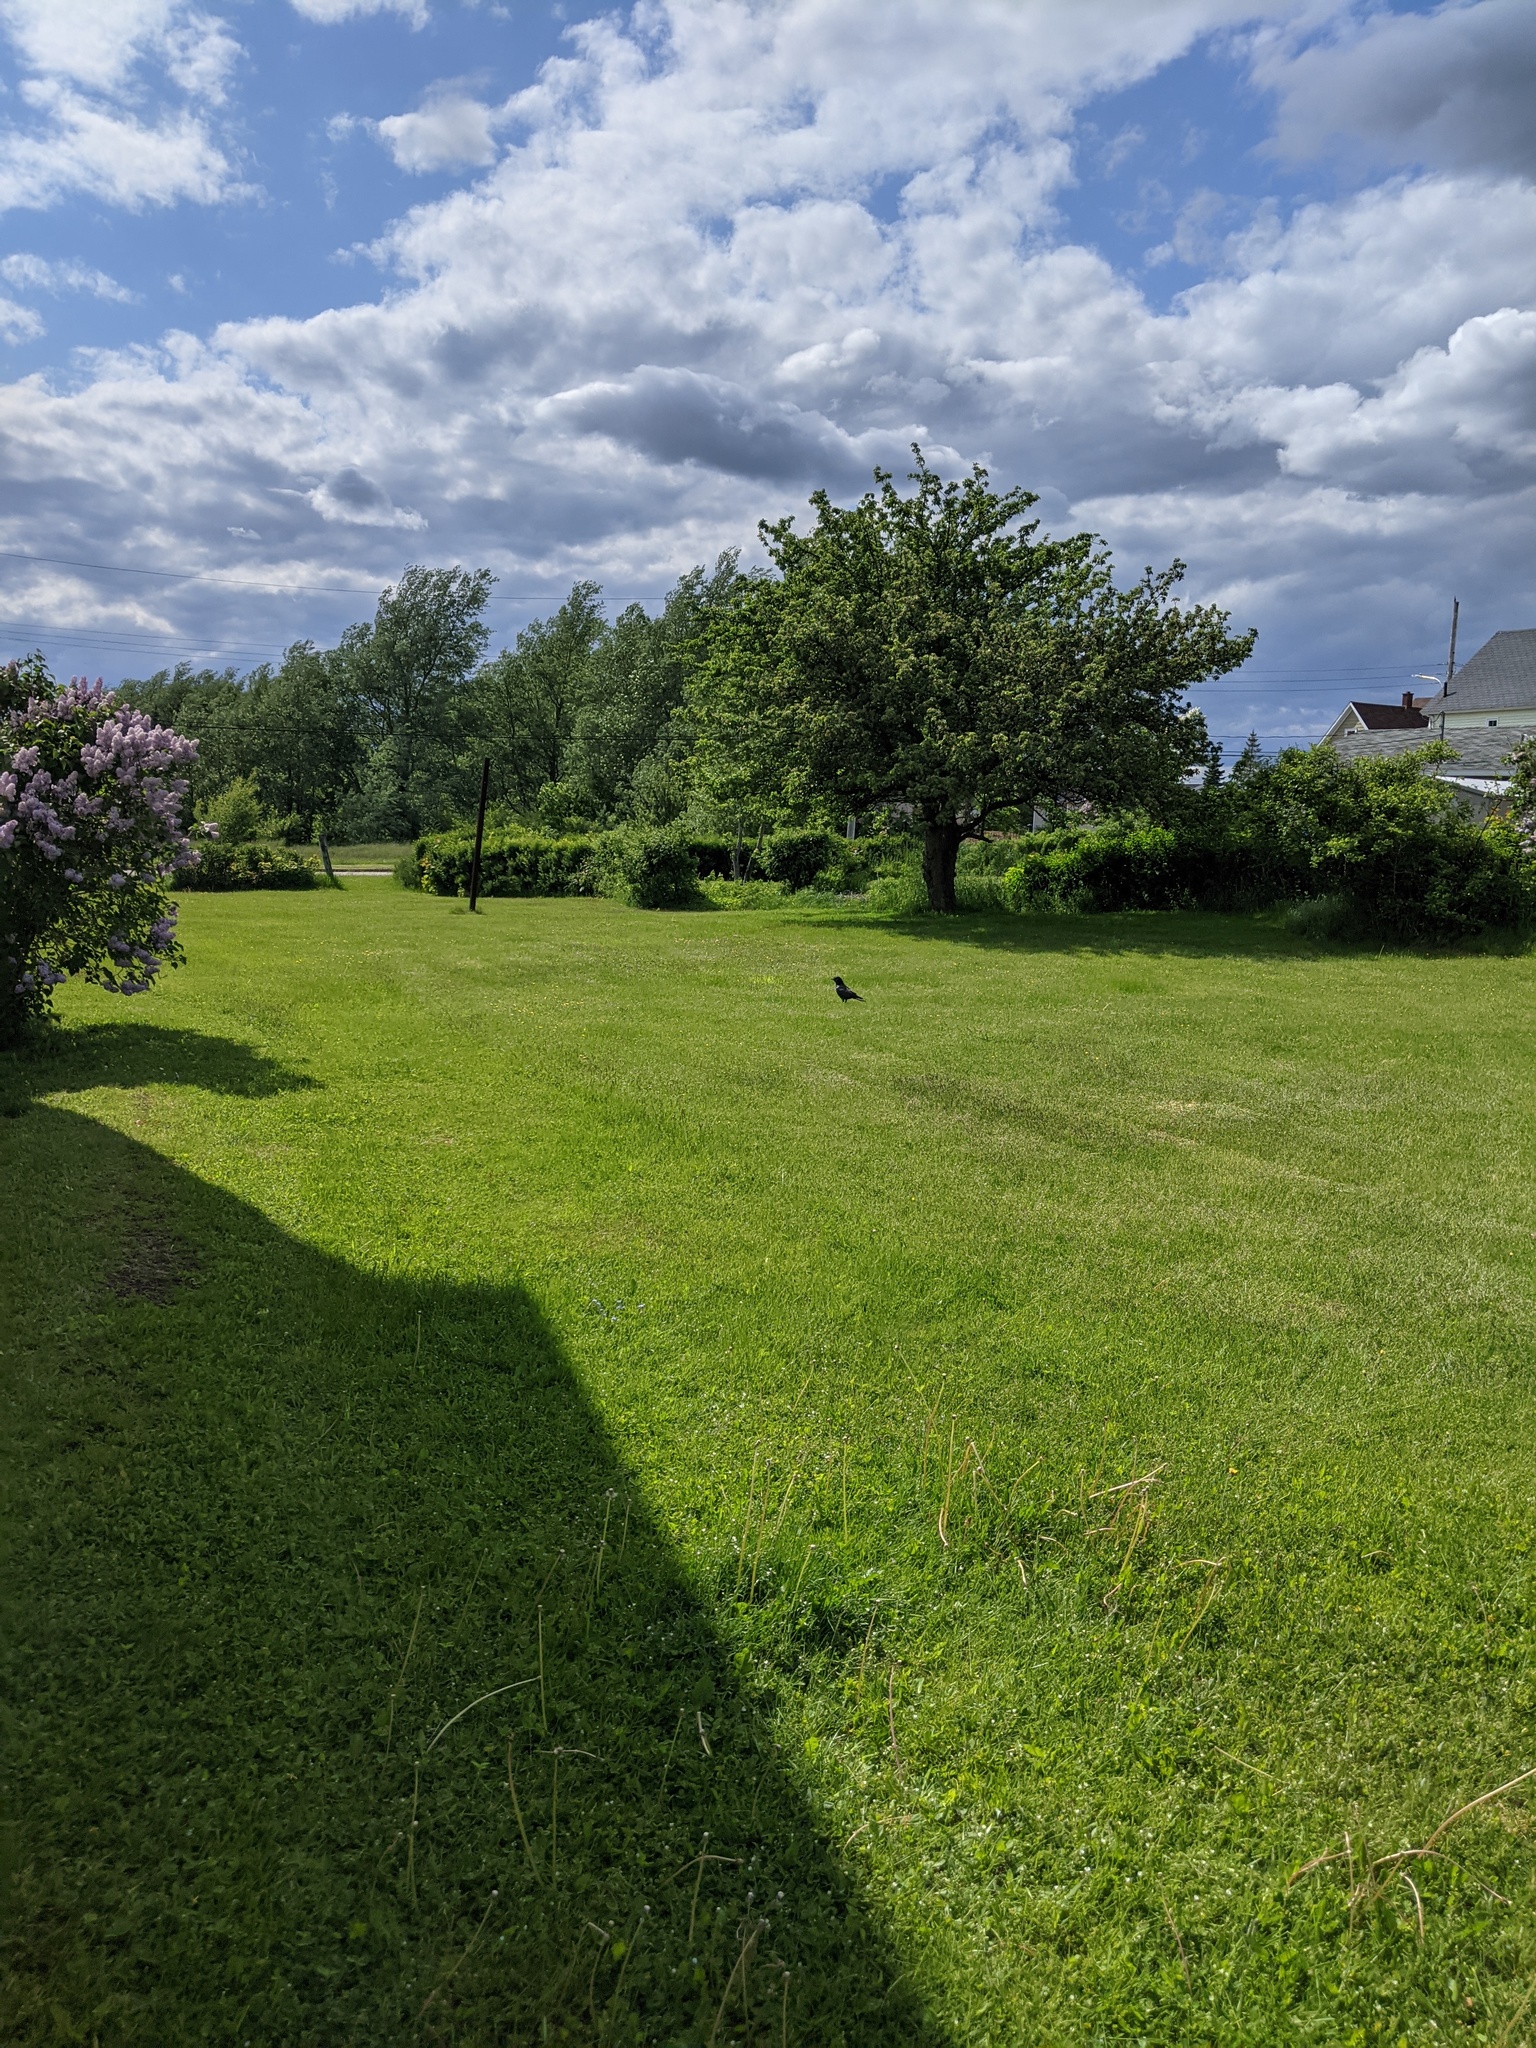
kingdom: Animalia
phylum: Chordata
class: Aves
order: Passeriformes
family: Corvidae
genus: Corvus
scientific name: Corvus brachyrhynchos
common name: American crow
